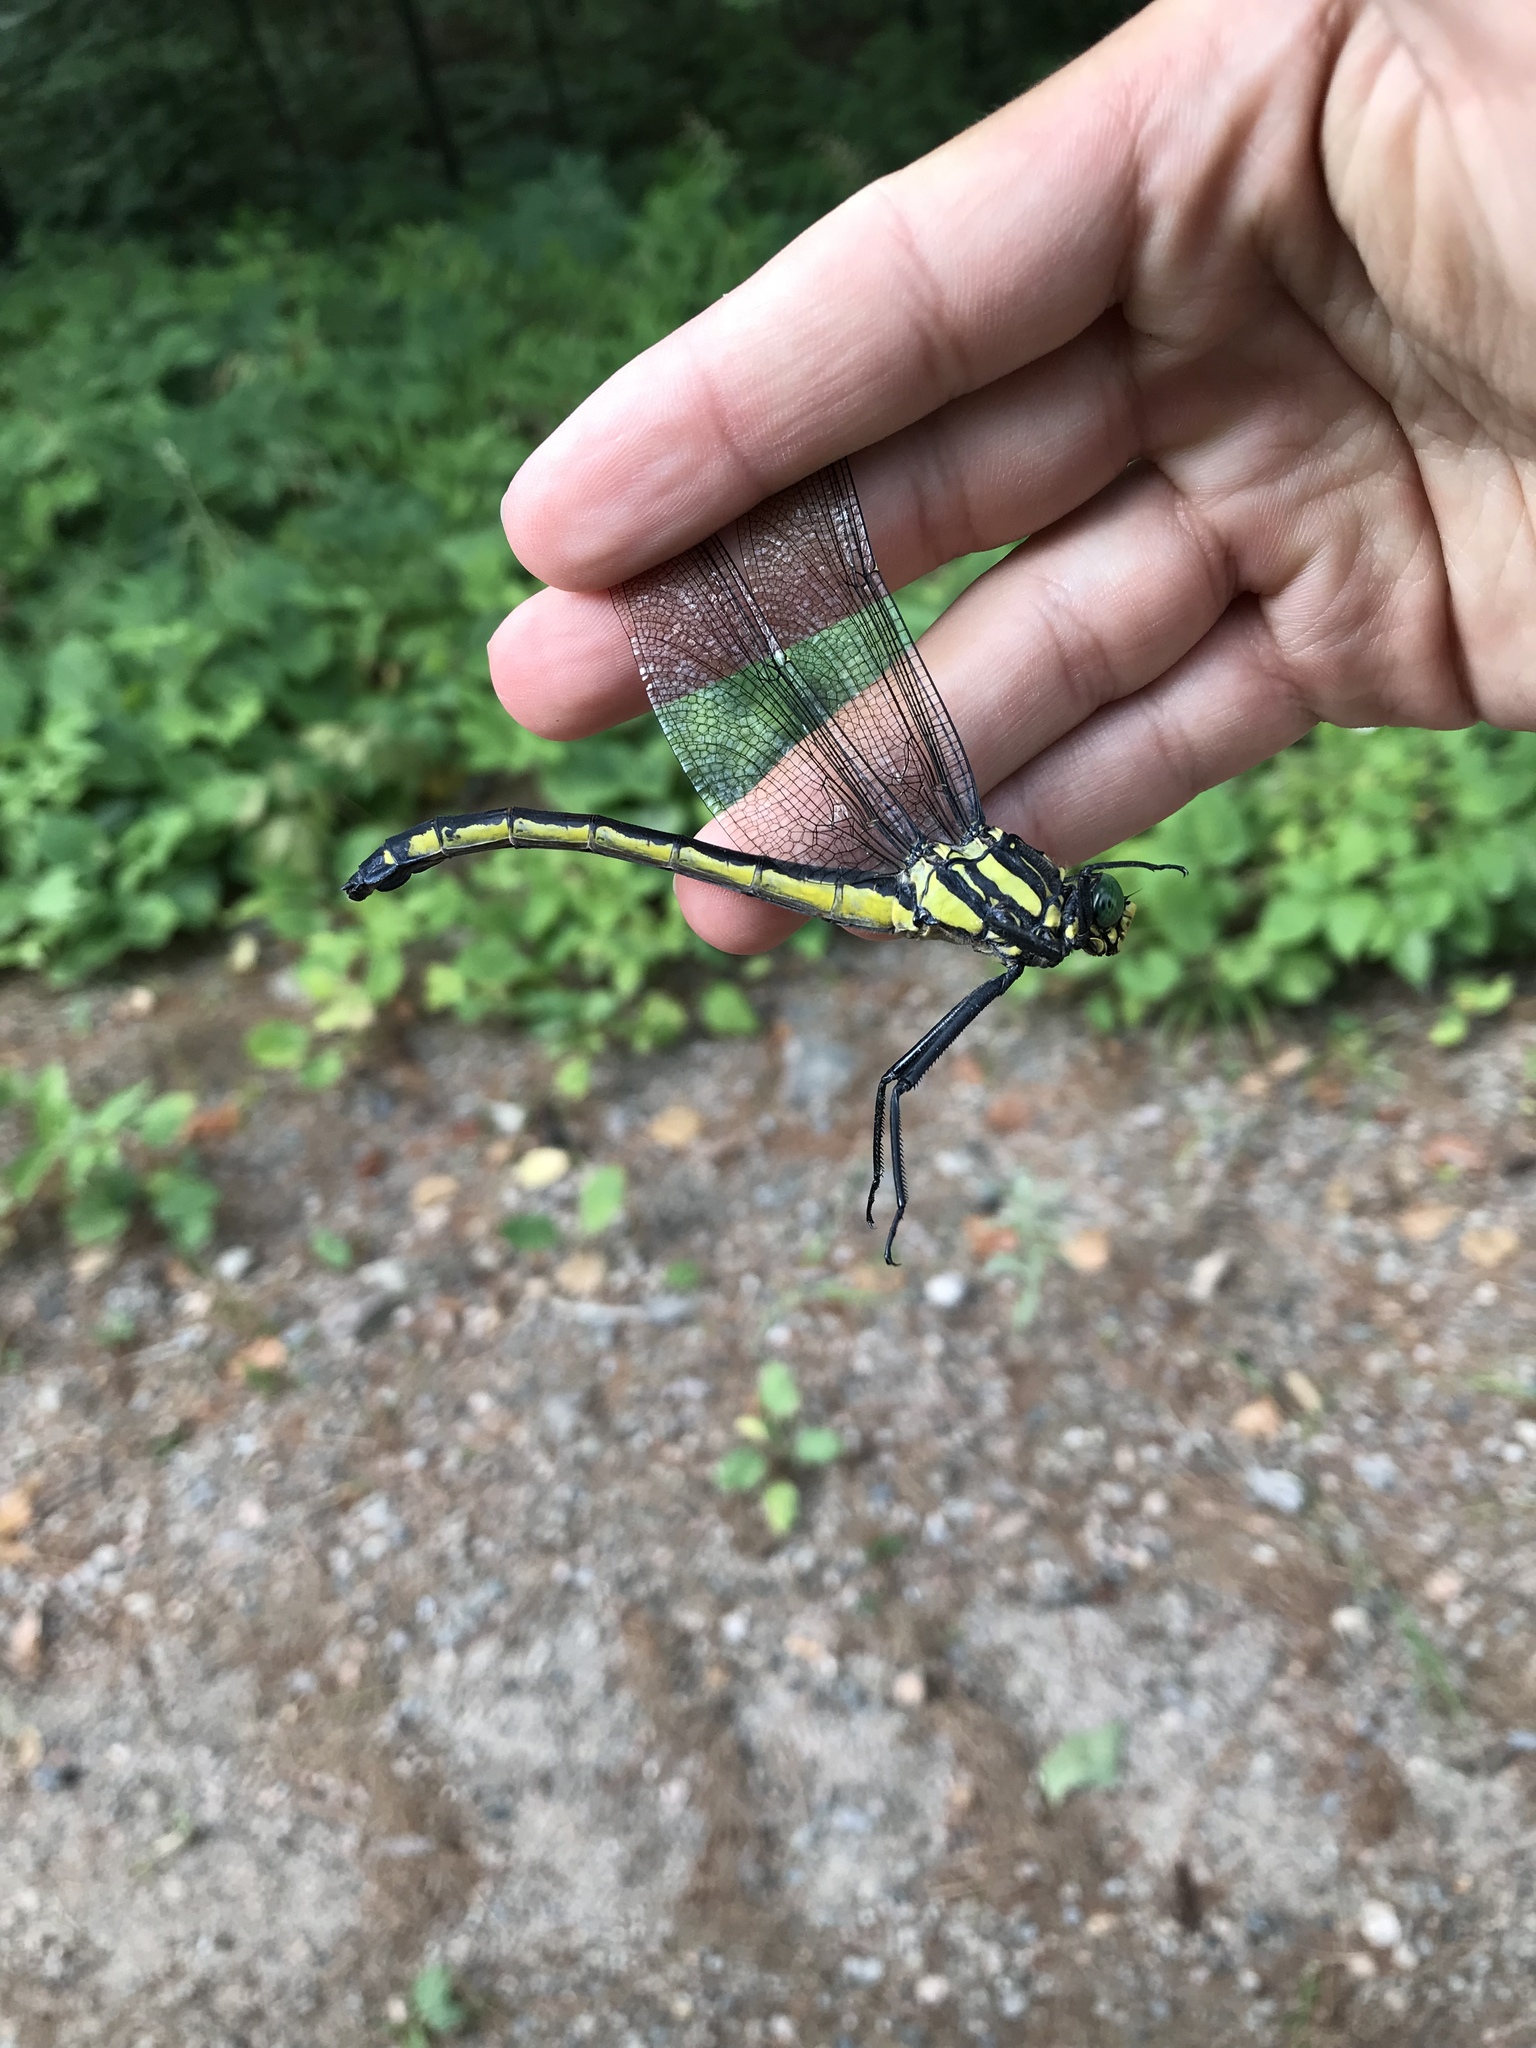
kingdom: Animalia
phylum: Arthropoda
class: Insecta
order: Odonata
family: Gomphidae
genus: Hagenius
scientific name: Hagenius brevistylus
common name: Dragonhunter
